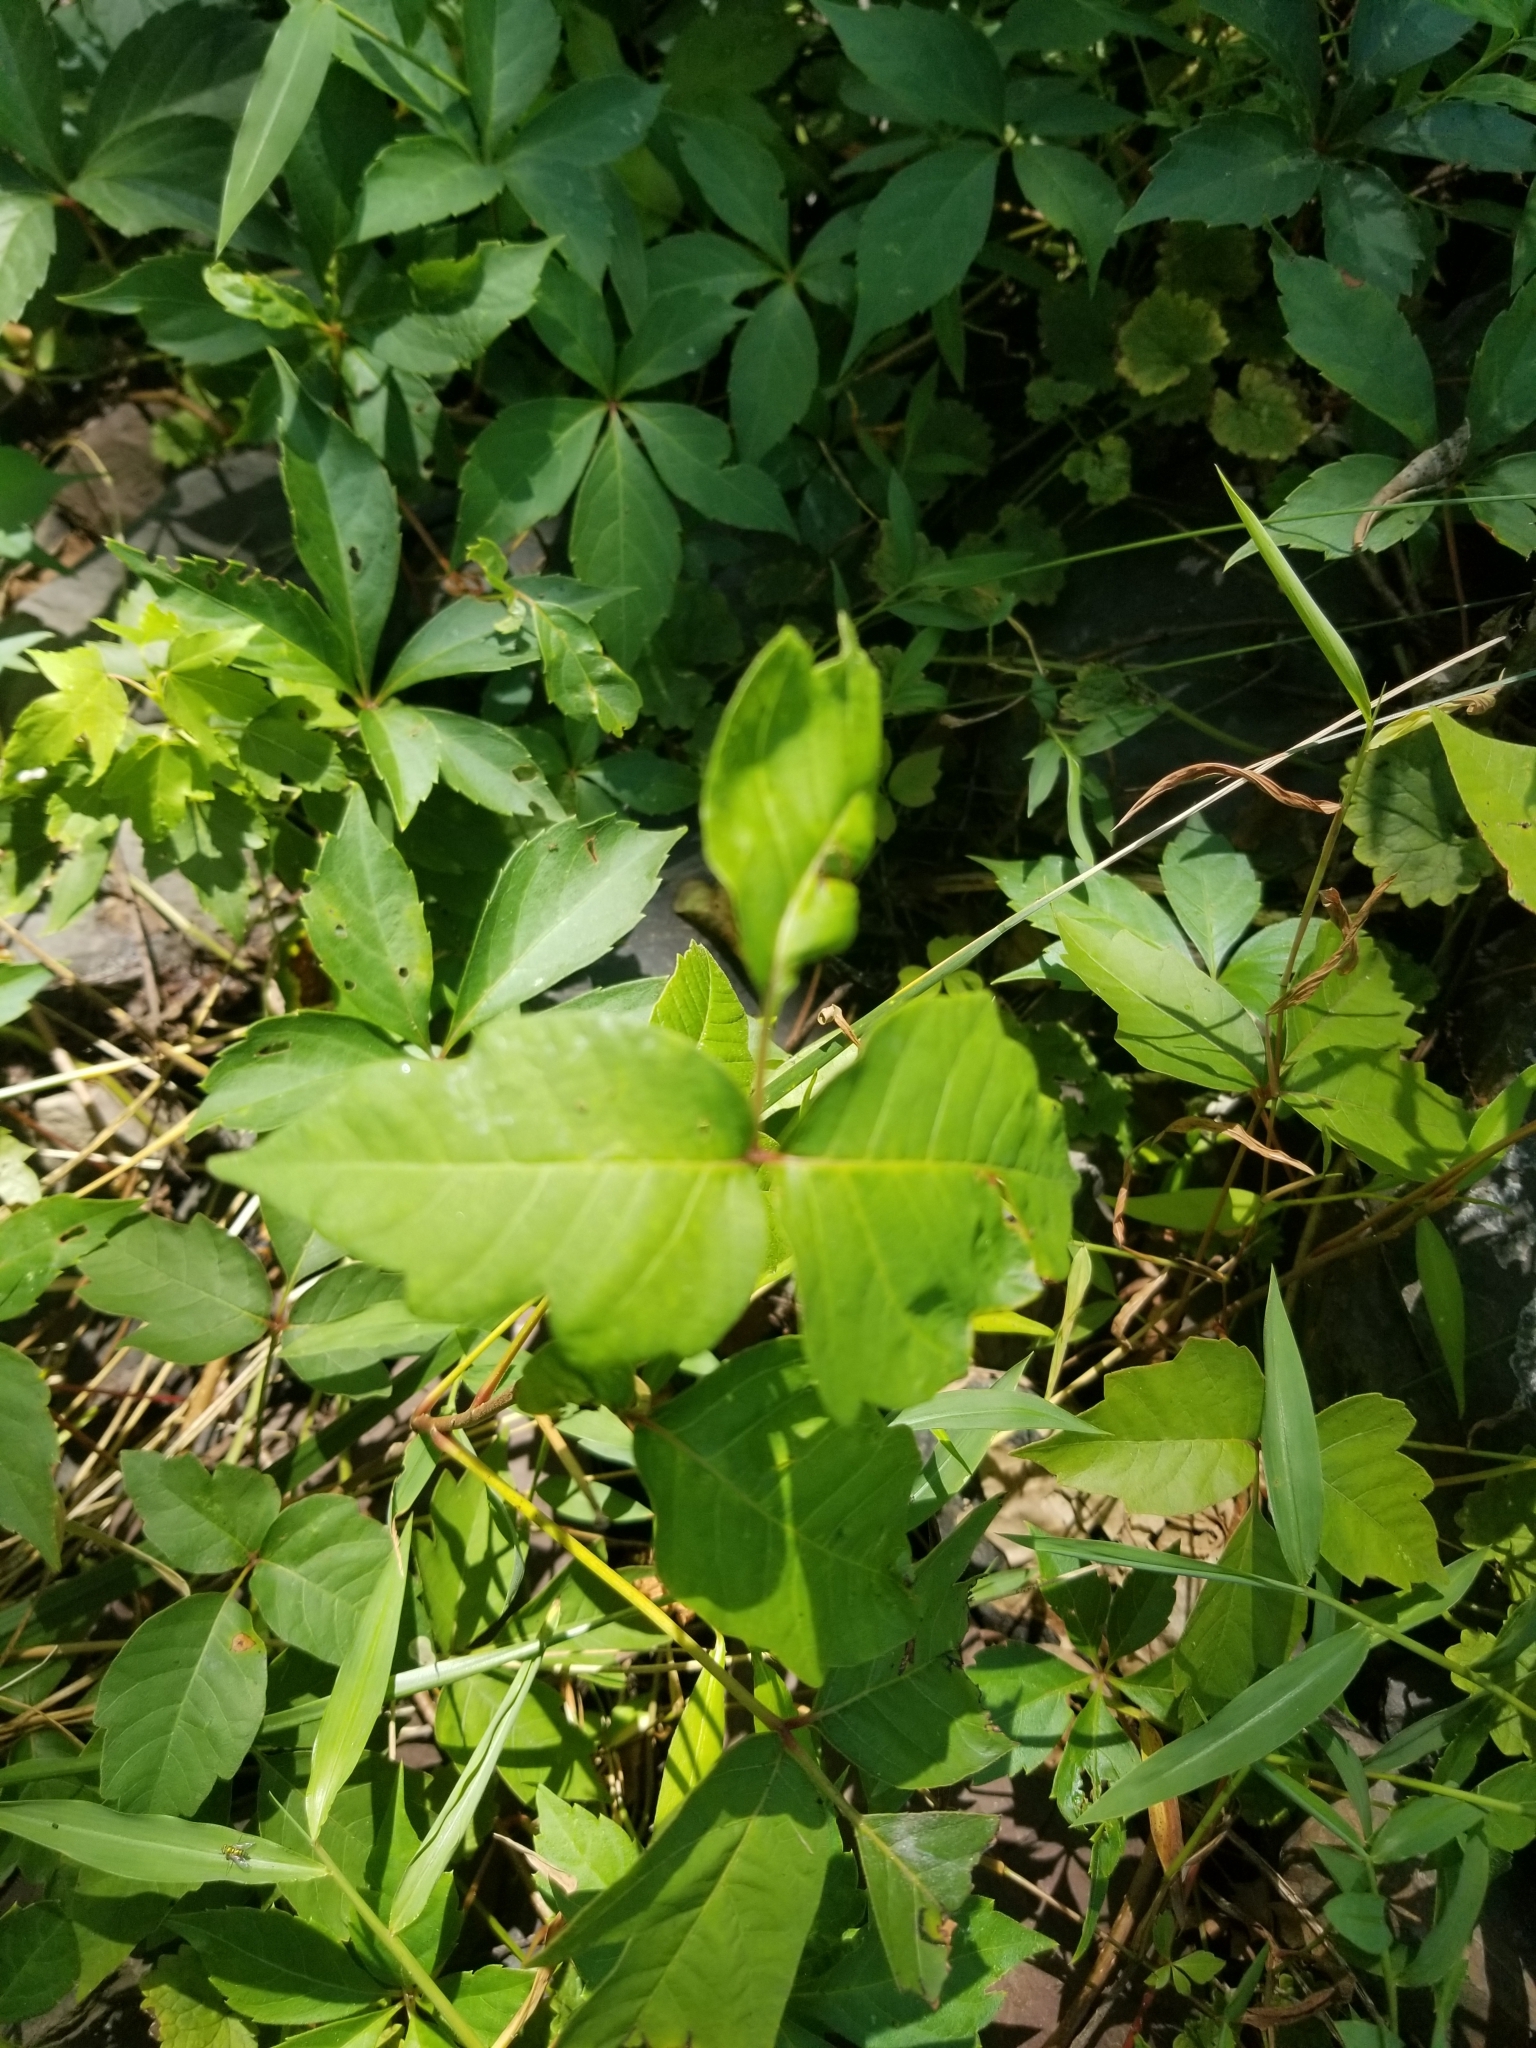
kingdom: Plantae
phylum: Tracheophyta
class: Magnoliopsida
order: Sapindales
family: Anacardiaceae
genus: Toxicodendron
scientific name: Toxicodendron radicans
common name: Poison ivy
